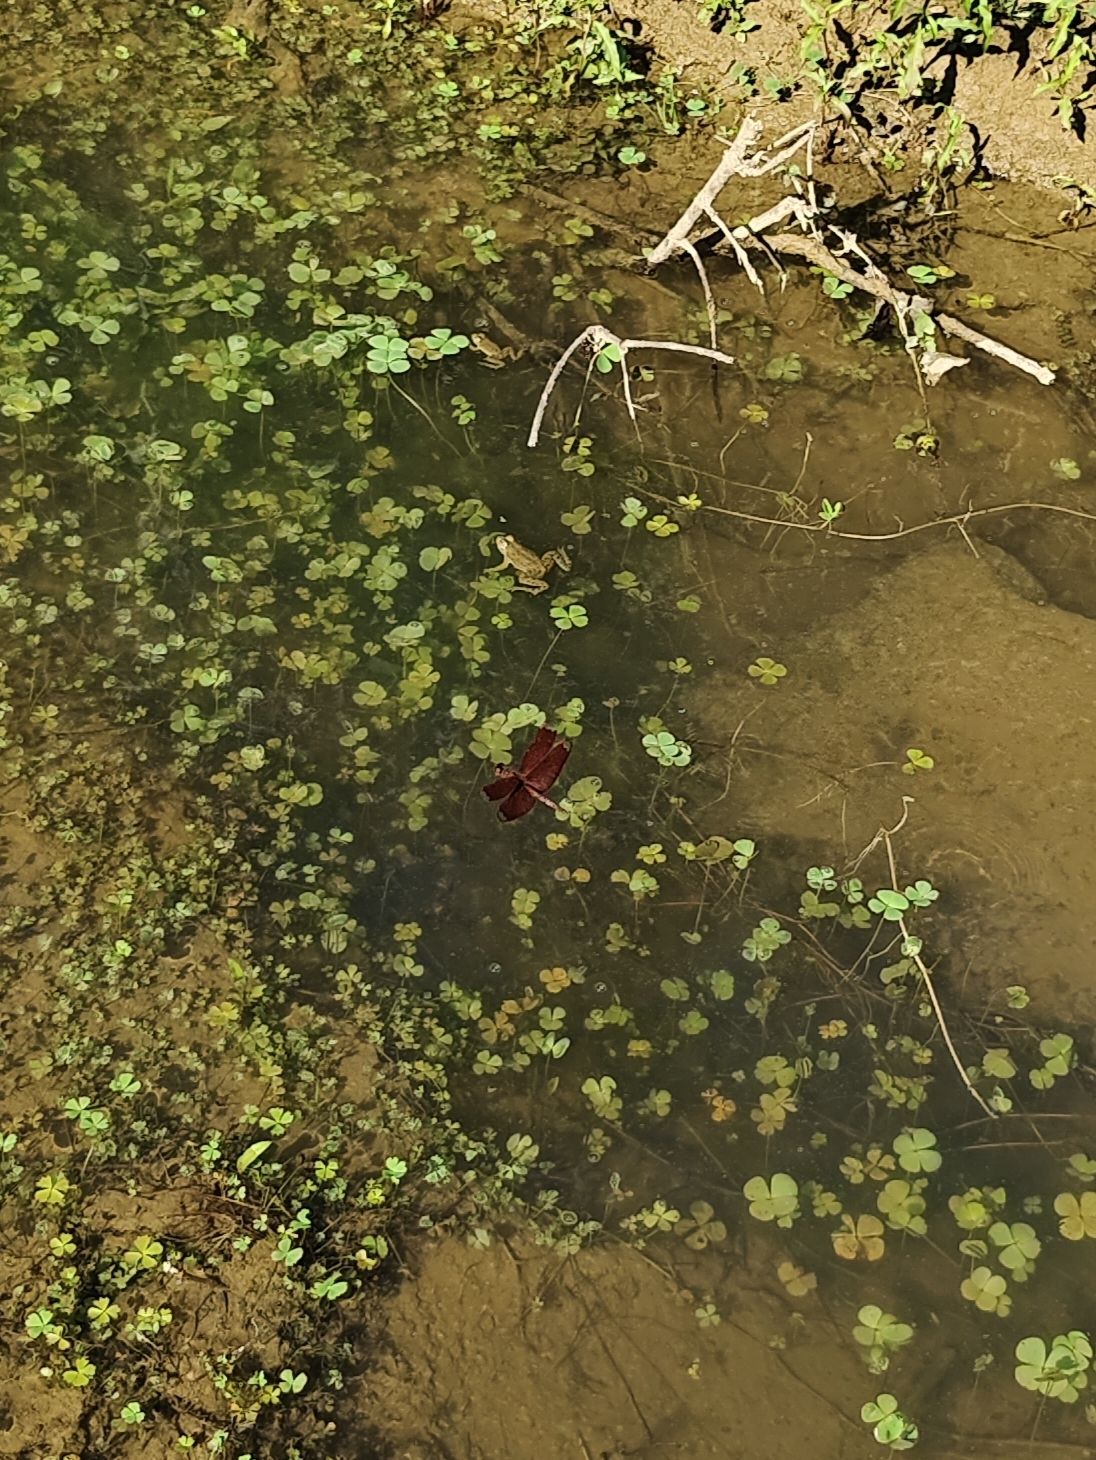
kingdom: Animalia
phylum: Chordata
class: Amphibia
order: Anura
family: Dicroglossidae
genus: Euphlyctis
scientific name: Euphlyctis cyanophlyctis
